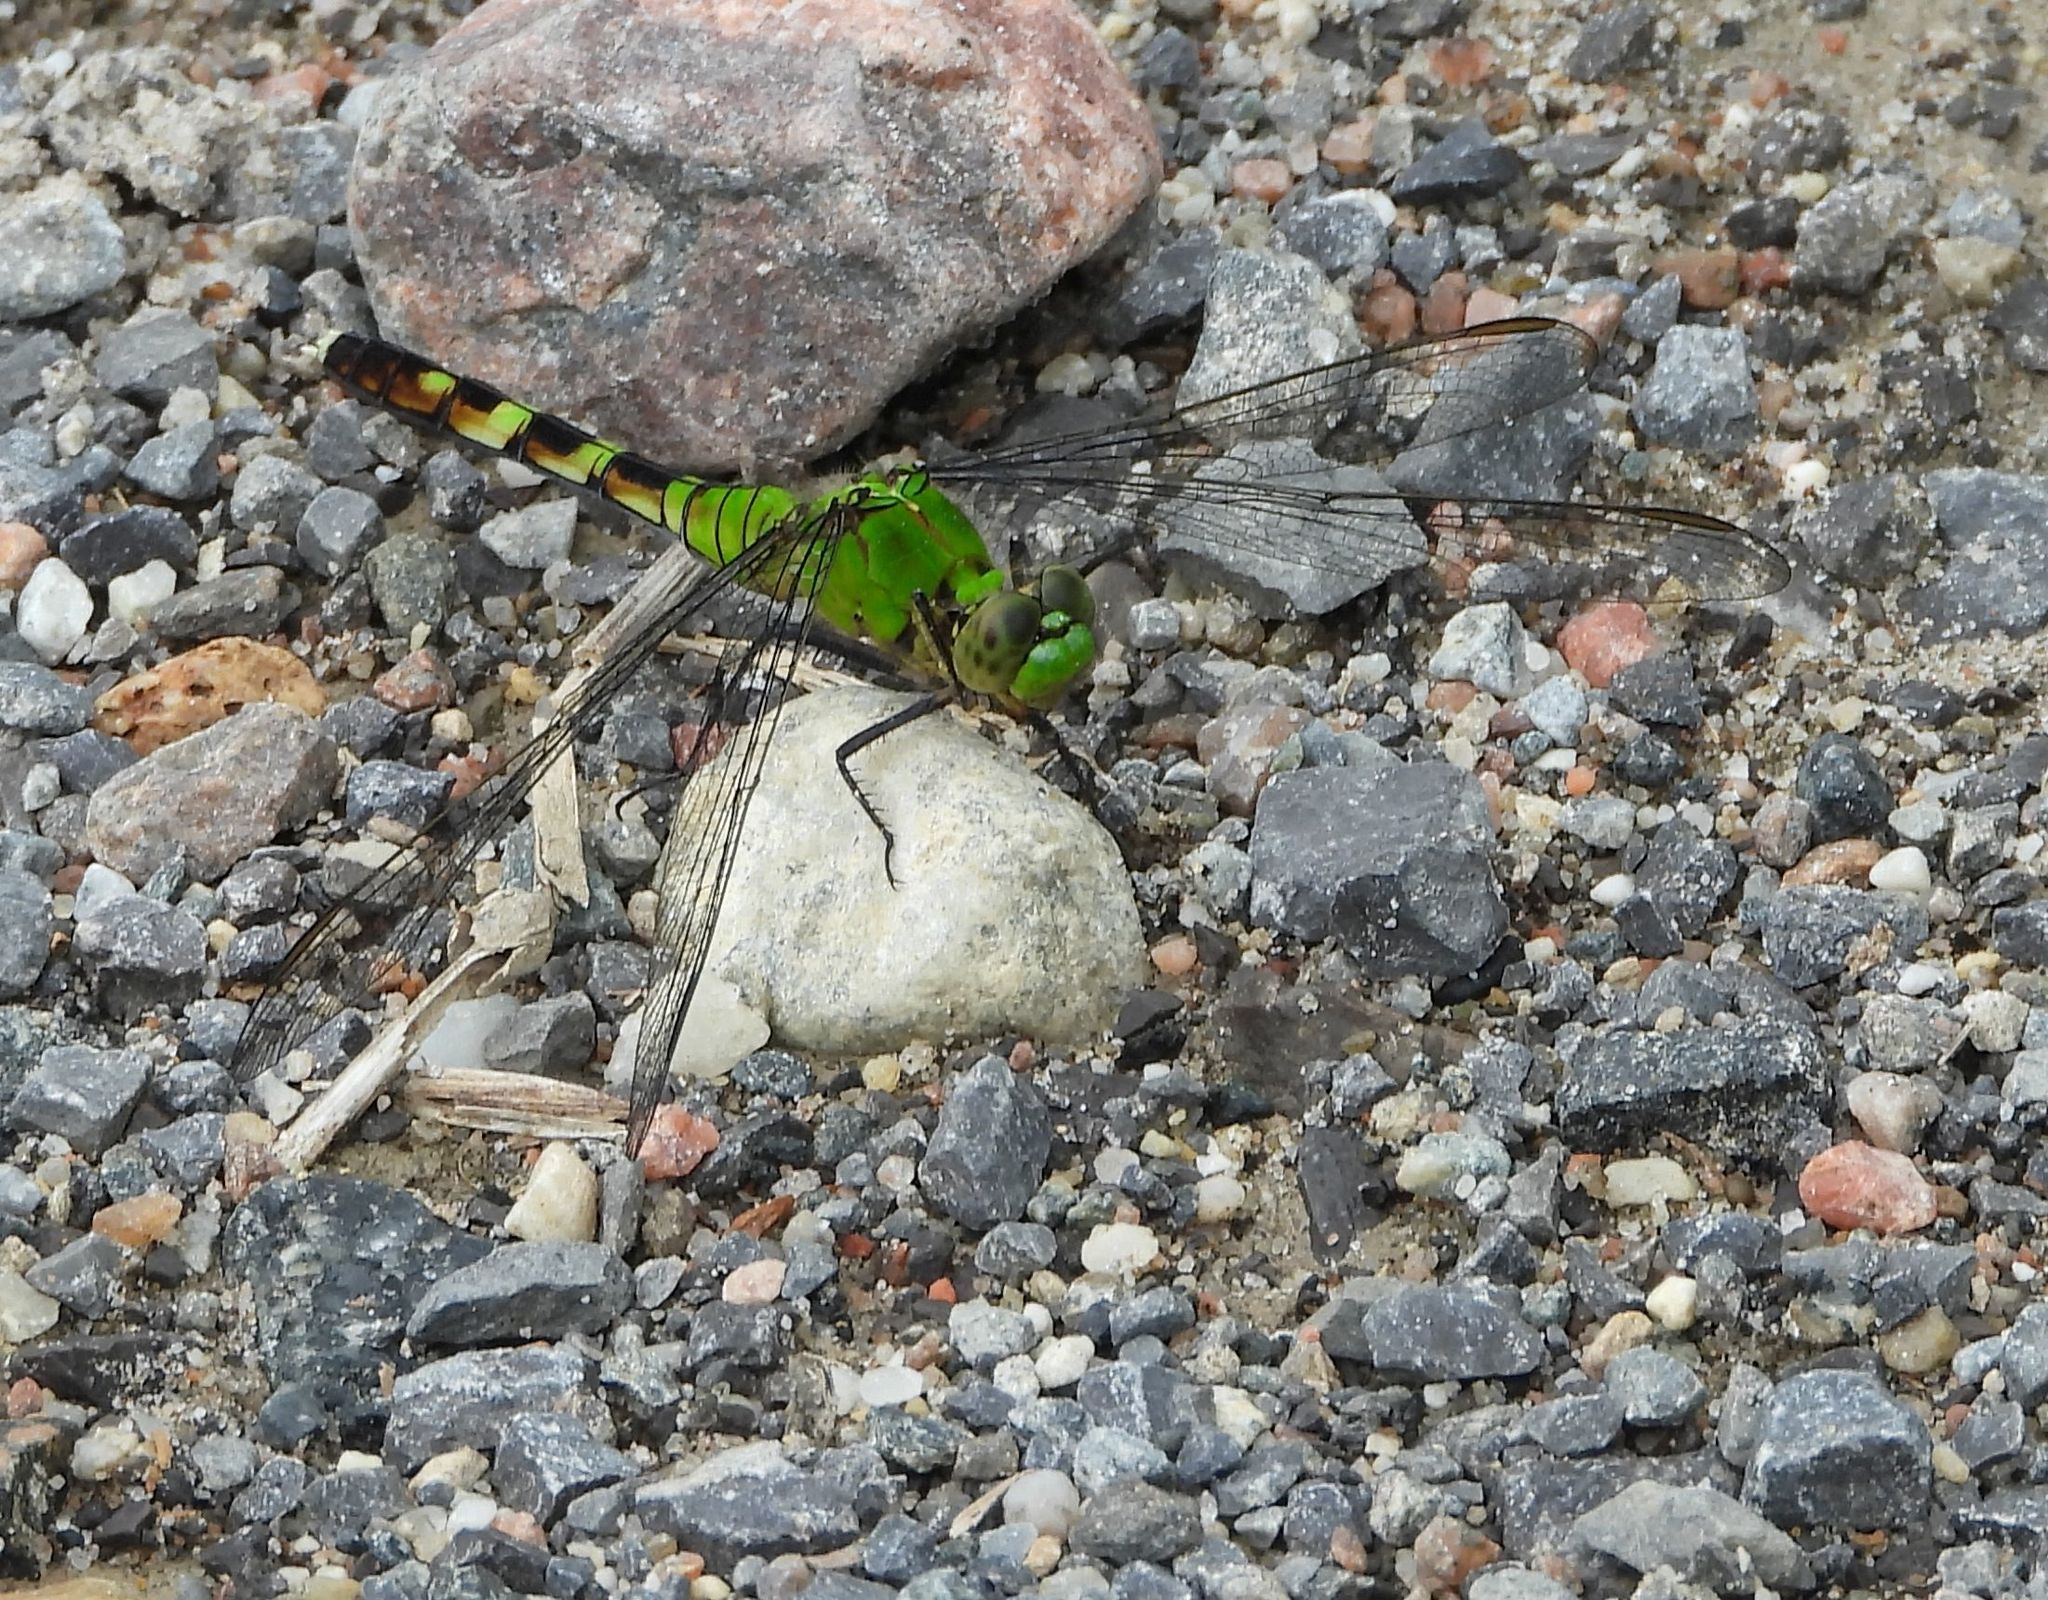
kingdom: Animalia
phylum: Arthropoda
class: Insecta
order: Odonata
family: Libellulidae
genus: Erythemis
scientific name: Erythemis simplicicollis
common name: Eastern pondhawk
